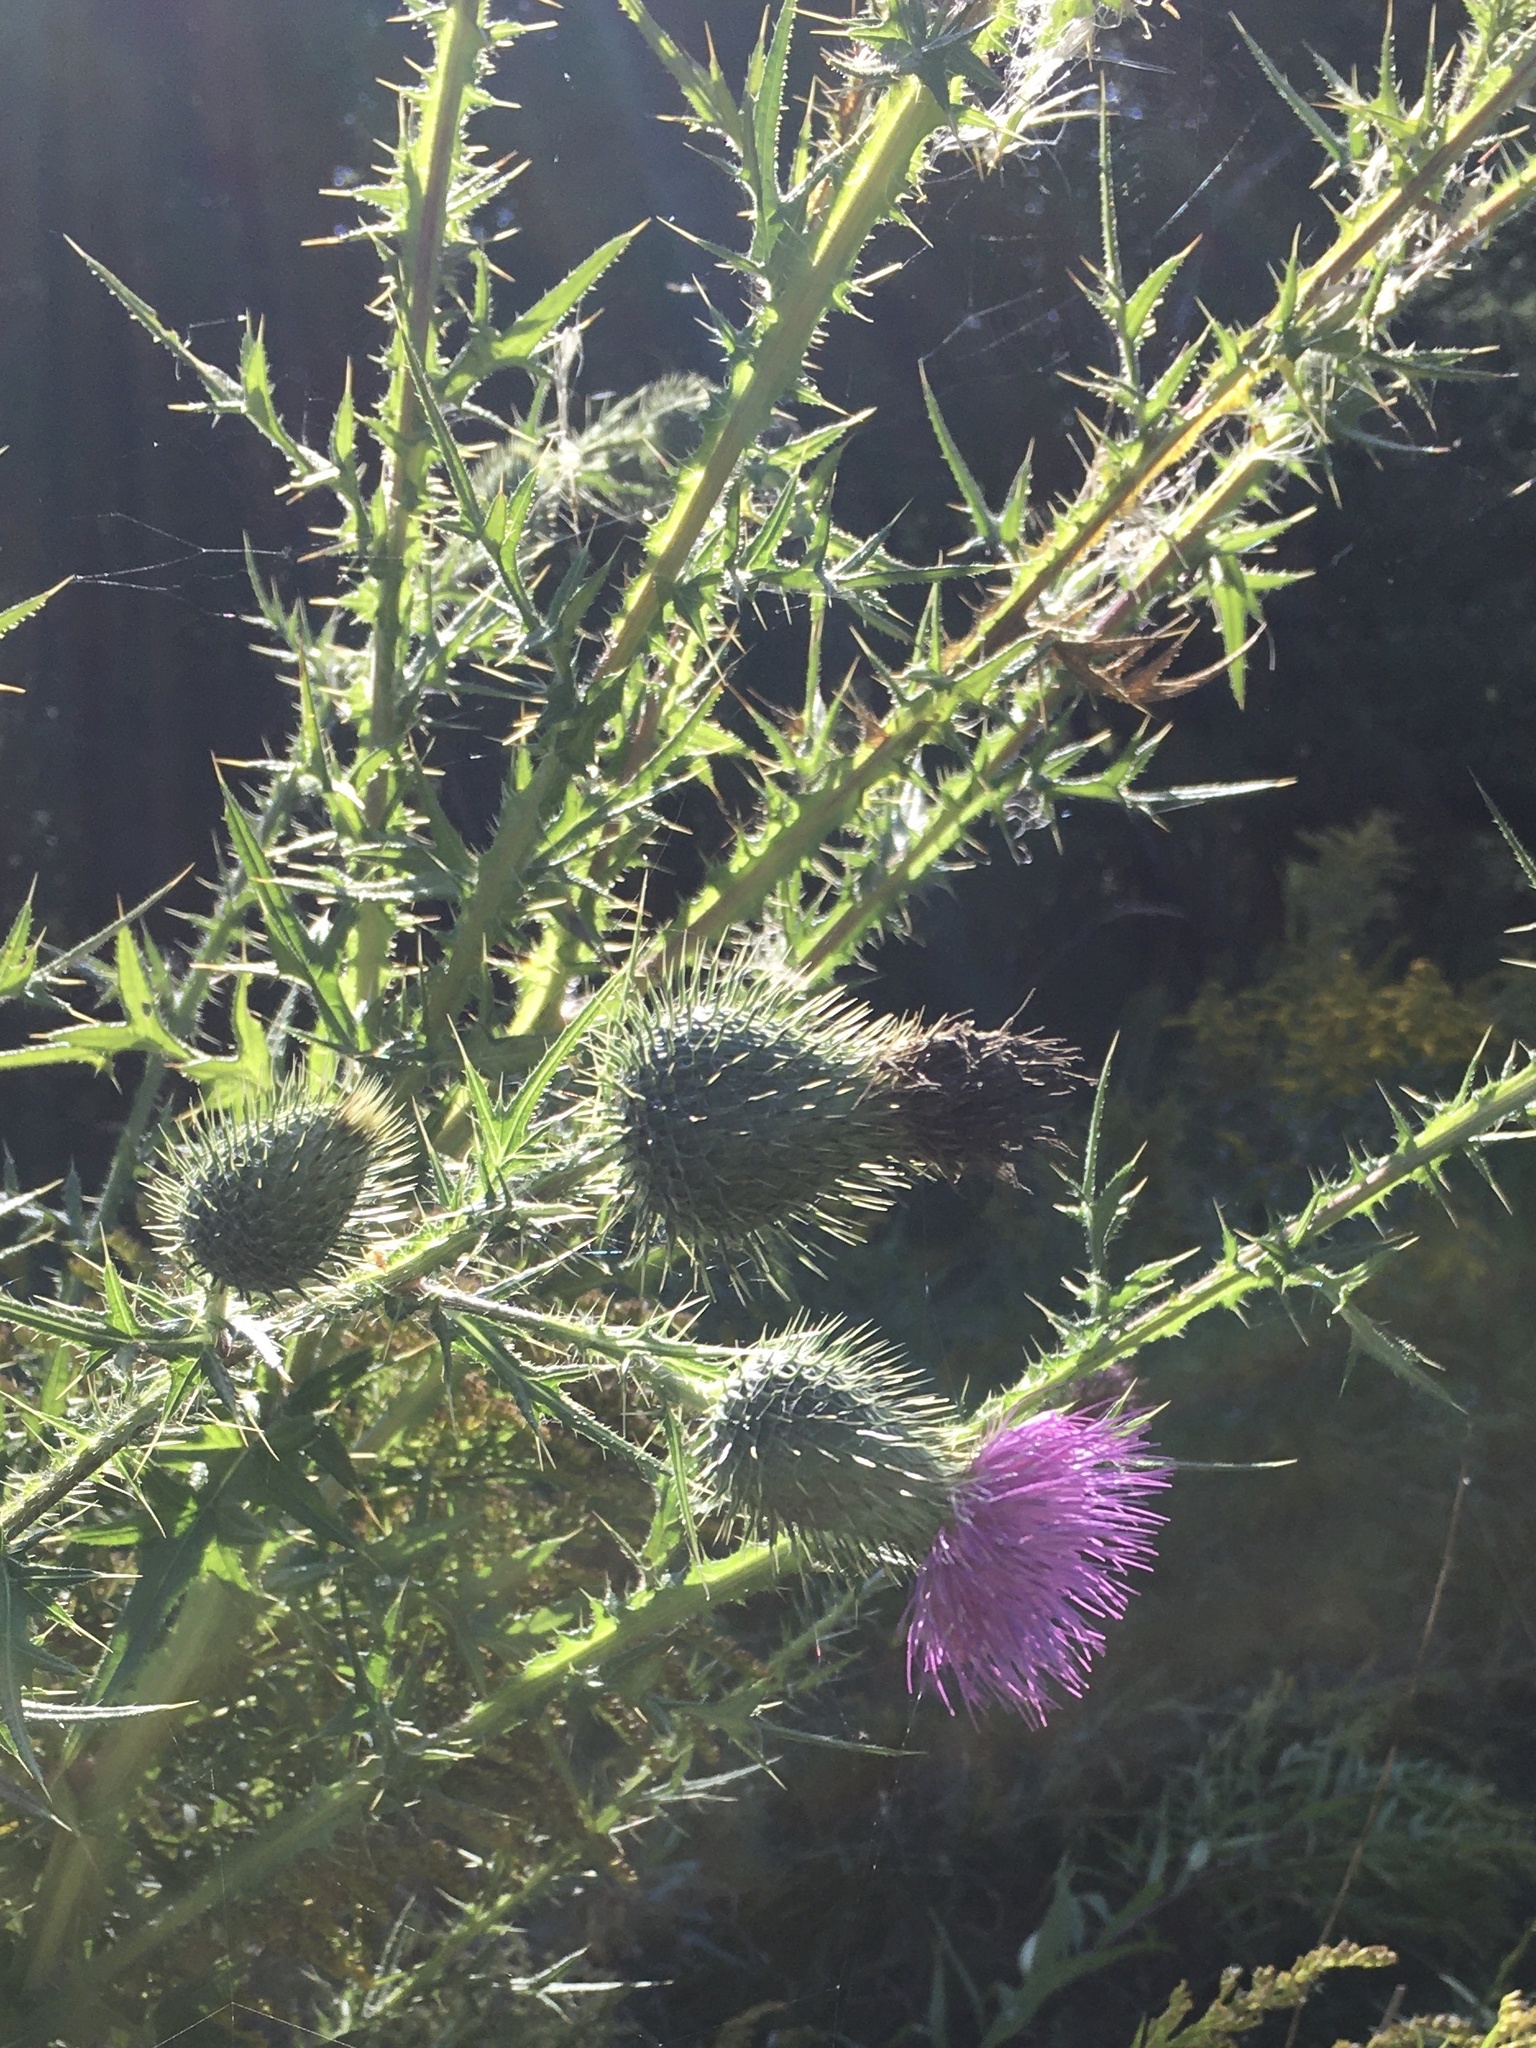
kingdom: Plantae
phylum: Tracheophyta
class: Magnoliopsida
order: Asterales
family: Asteraceae
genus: Cirsium
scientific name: Cirsium vulgare
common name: Bull thistle
